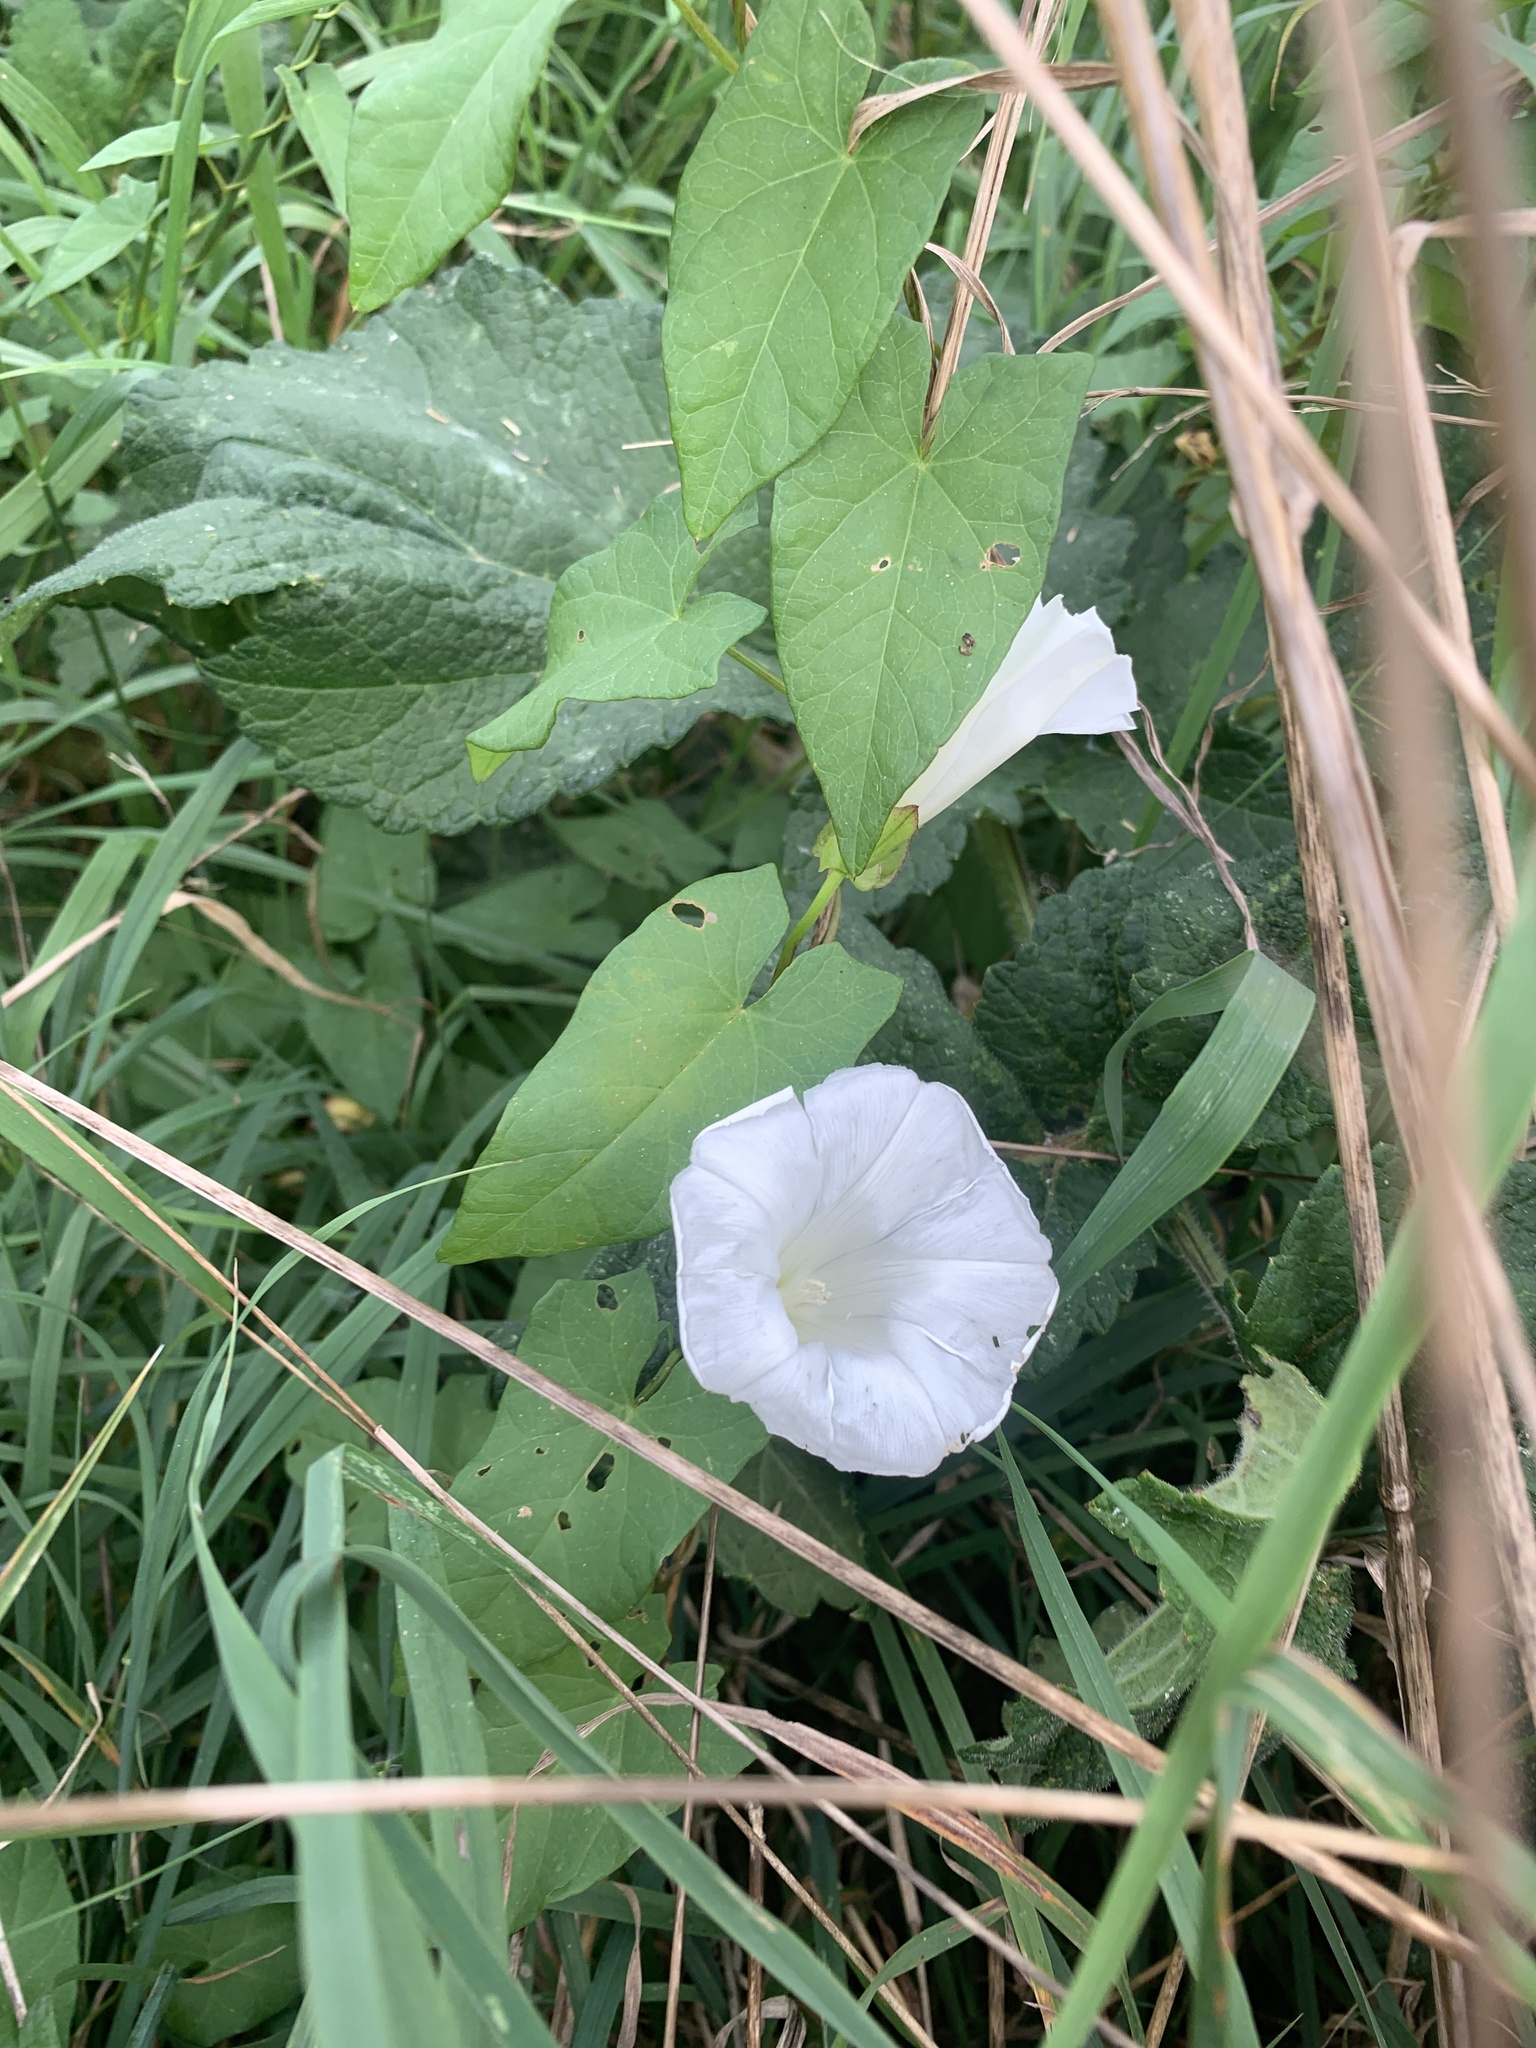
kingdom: Plantae
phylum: Tracheophyta
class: Magnoliopsida
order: Solanales
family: Convolvulaceae
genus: Calystegia
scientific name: Calystegia sepium
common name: Hedge bindweed
